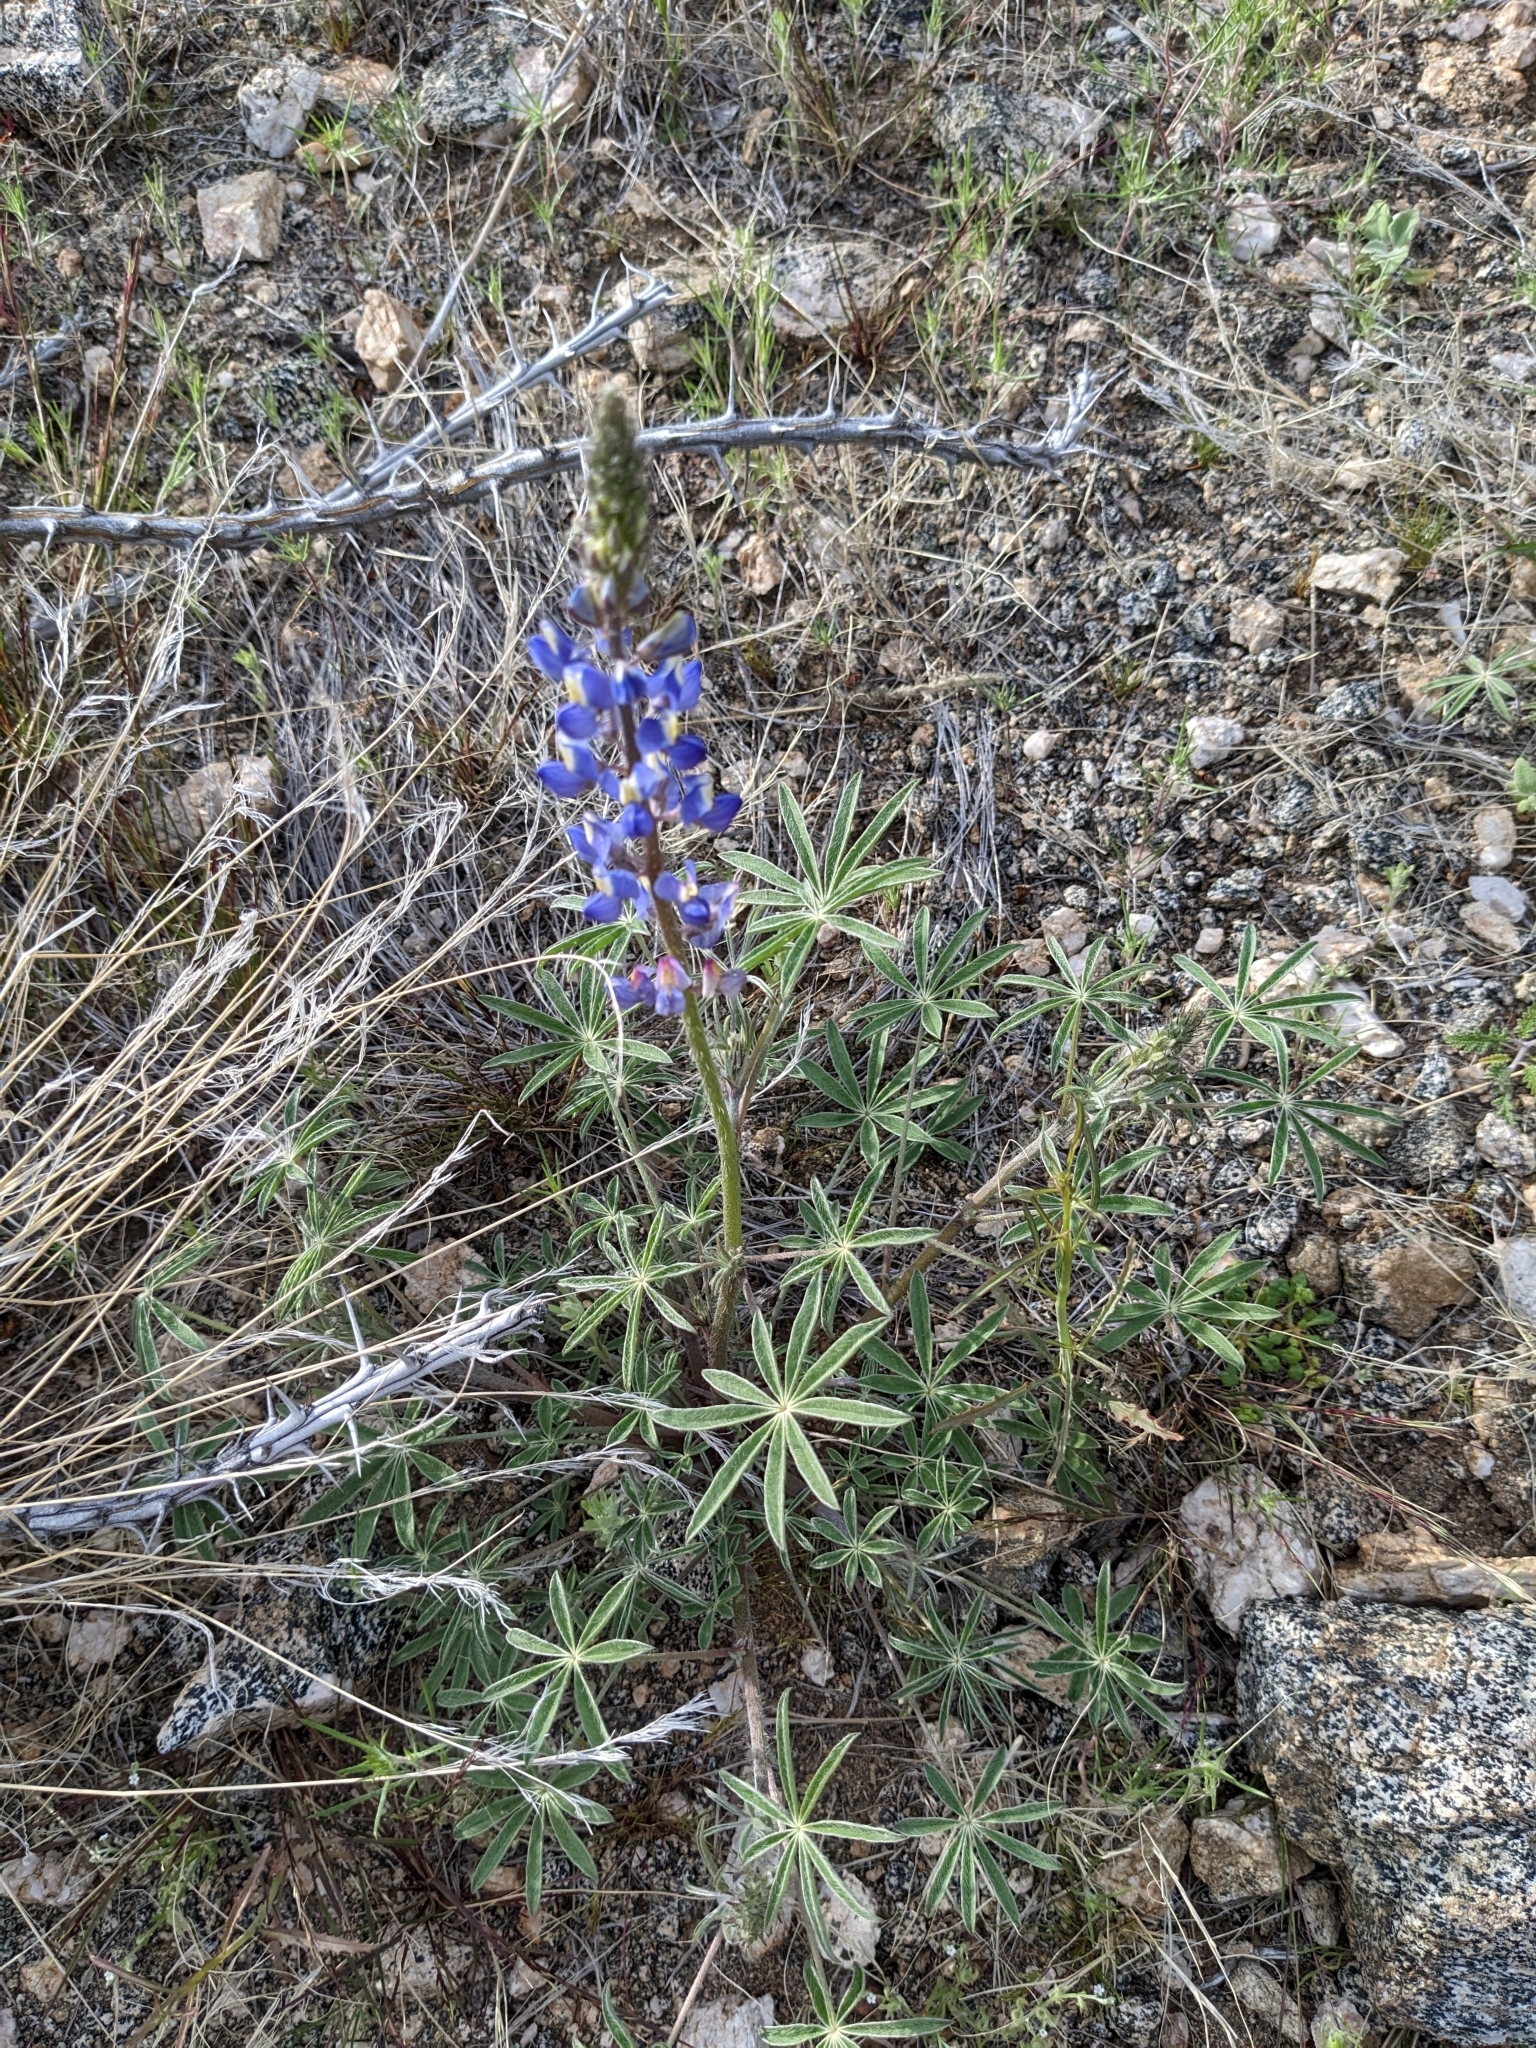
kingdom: Plantae
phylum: Tracheophyta
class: Magnoliopsida
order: Fabales
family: Fabaceae
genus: Lupinus
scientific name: Lupinus sparsiflorus
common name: Coulter's lupine
